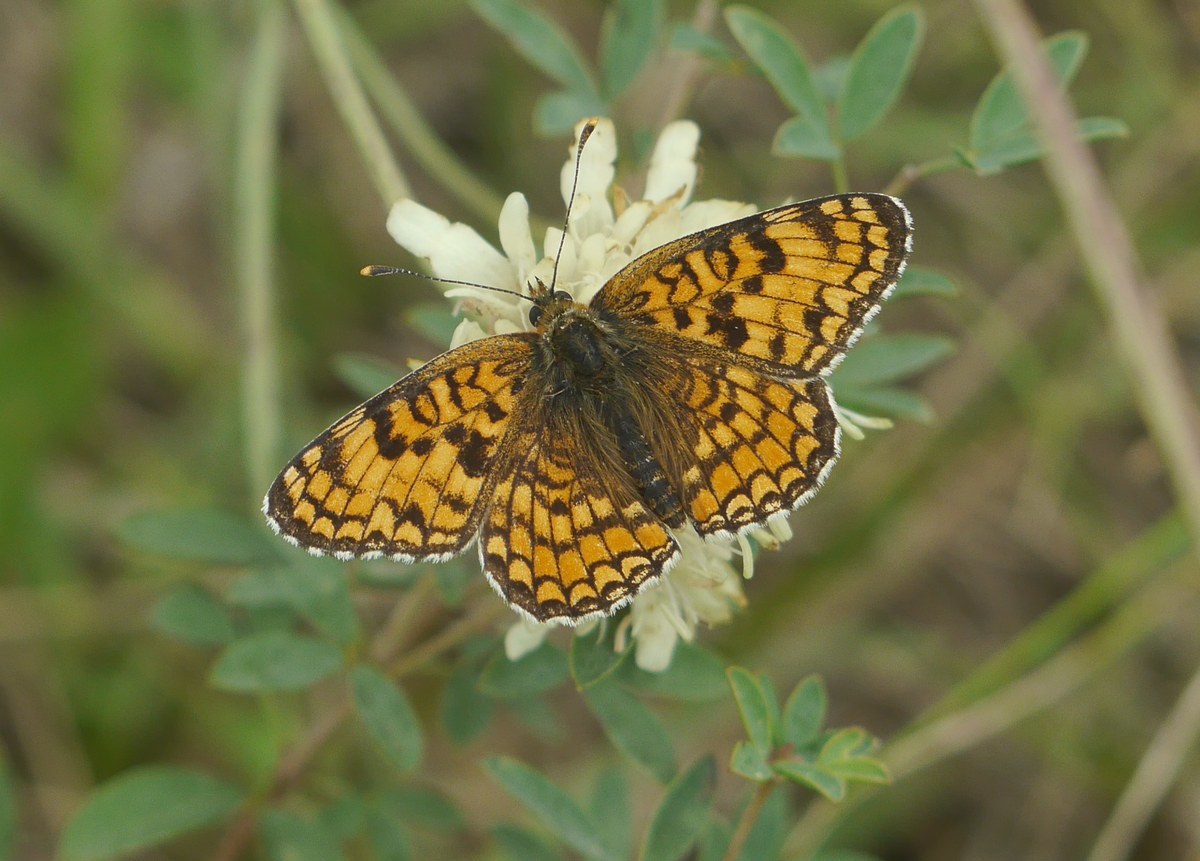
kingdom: Animalia
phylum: Arthropoda
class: Insecta
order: Lepidoptera
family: Nymphalidae
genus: Melitaea
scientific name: Melitaea phoebe
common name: Knapweed fritillary
